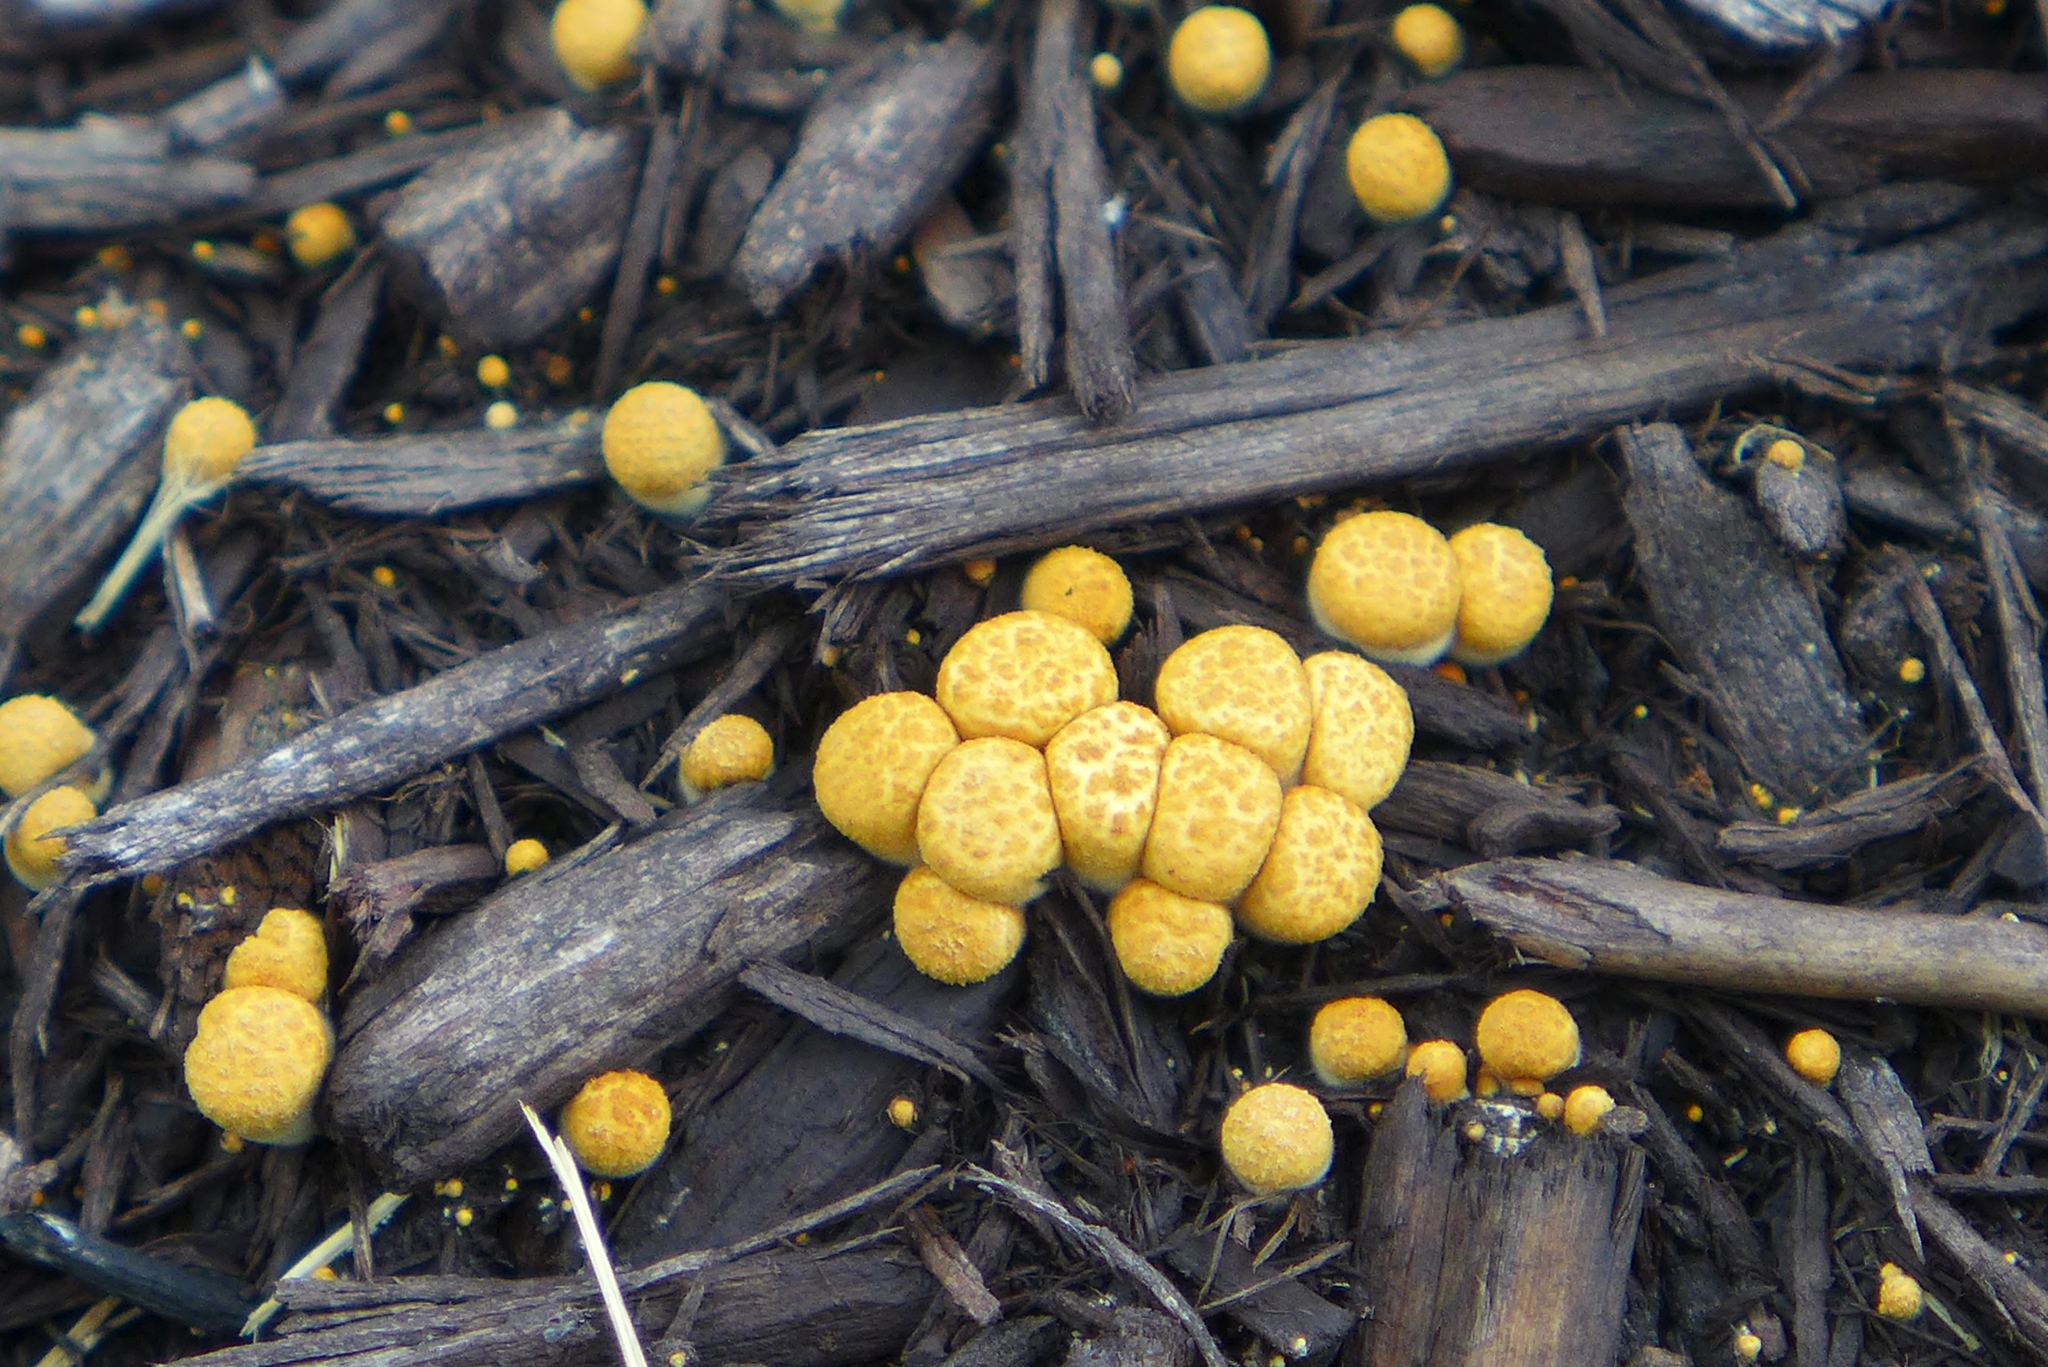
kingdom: Fungi
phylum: Basidiomycota
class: Agaricomycetes
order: Agaricales
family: Nidulariaceae
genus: Crucibulum
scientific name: Crucibulum laeve
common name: Common bird's nest
